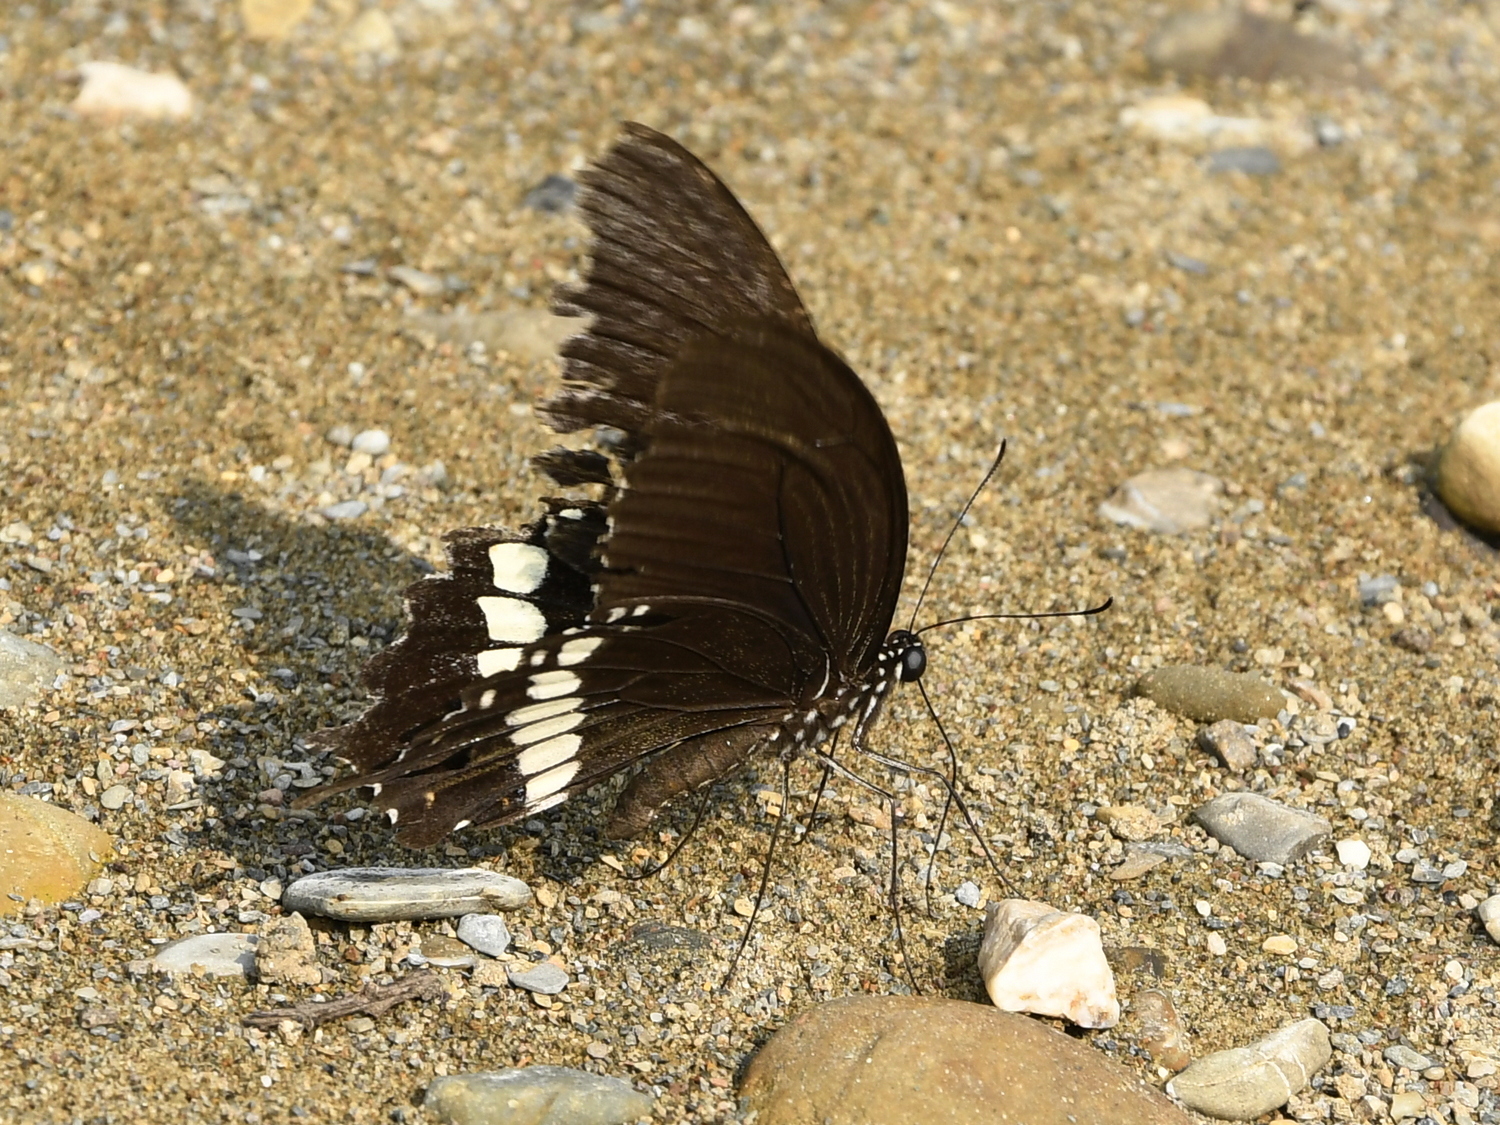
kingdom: Animalia
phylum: Arthropoda
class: Insecta
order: Lepidoptera
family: Papilionidae
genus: Papilio
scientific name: Papilio polytes
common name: Common mormon
